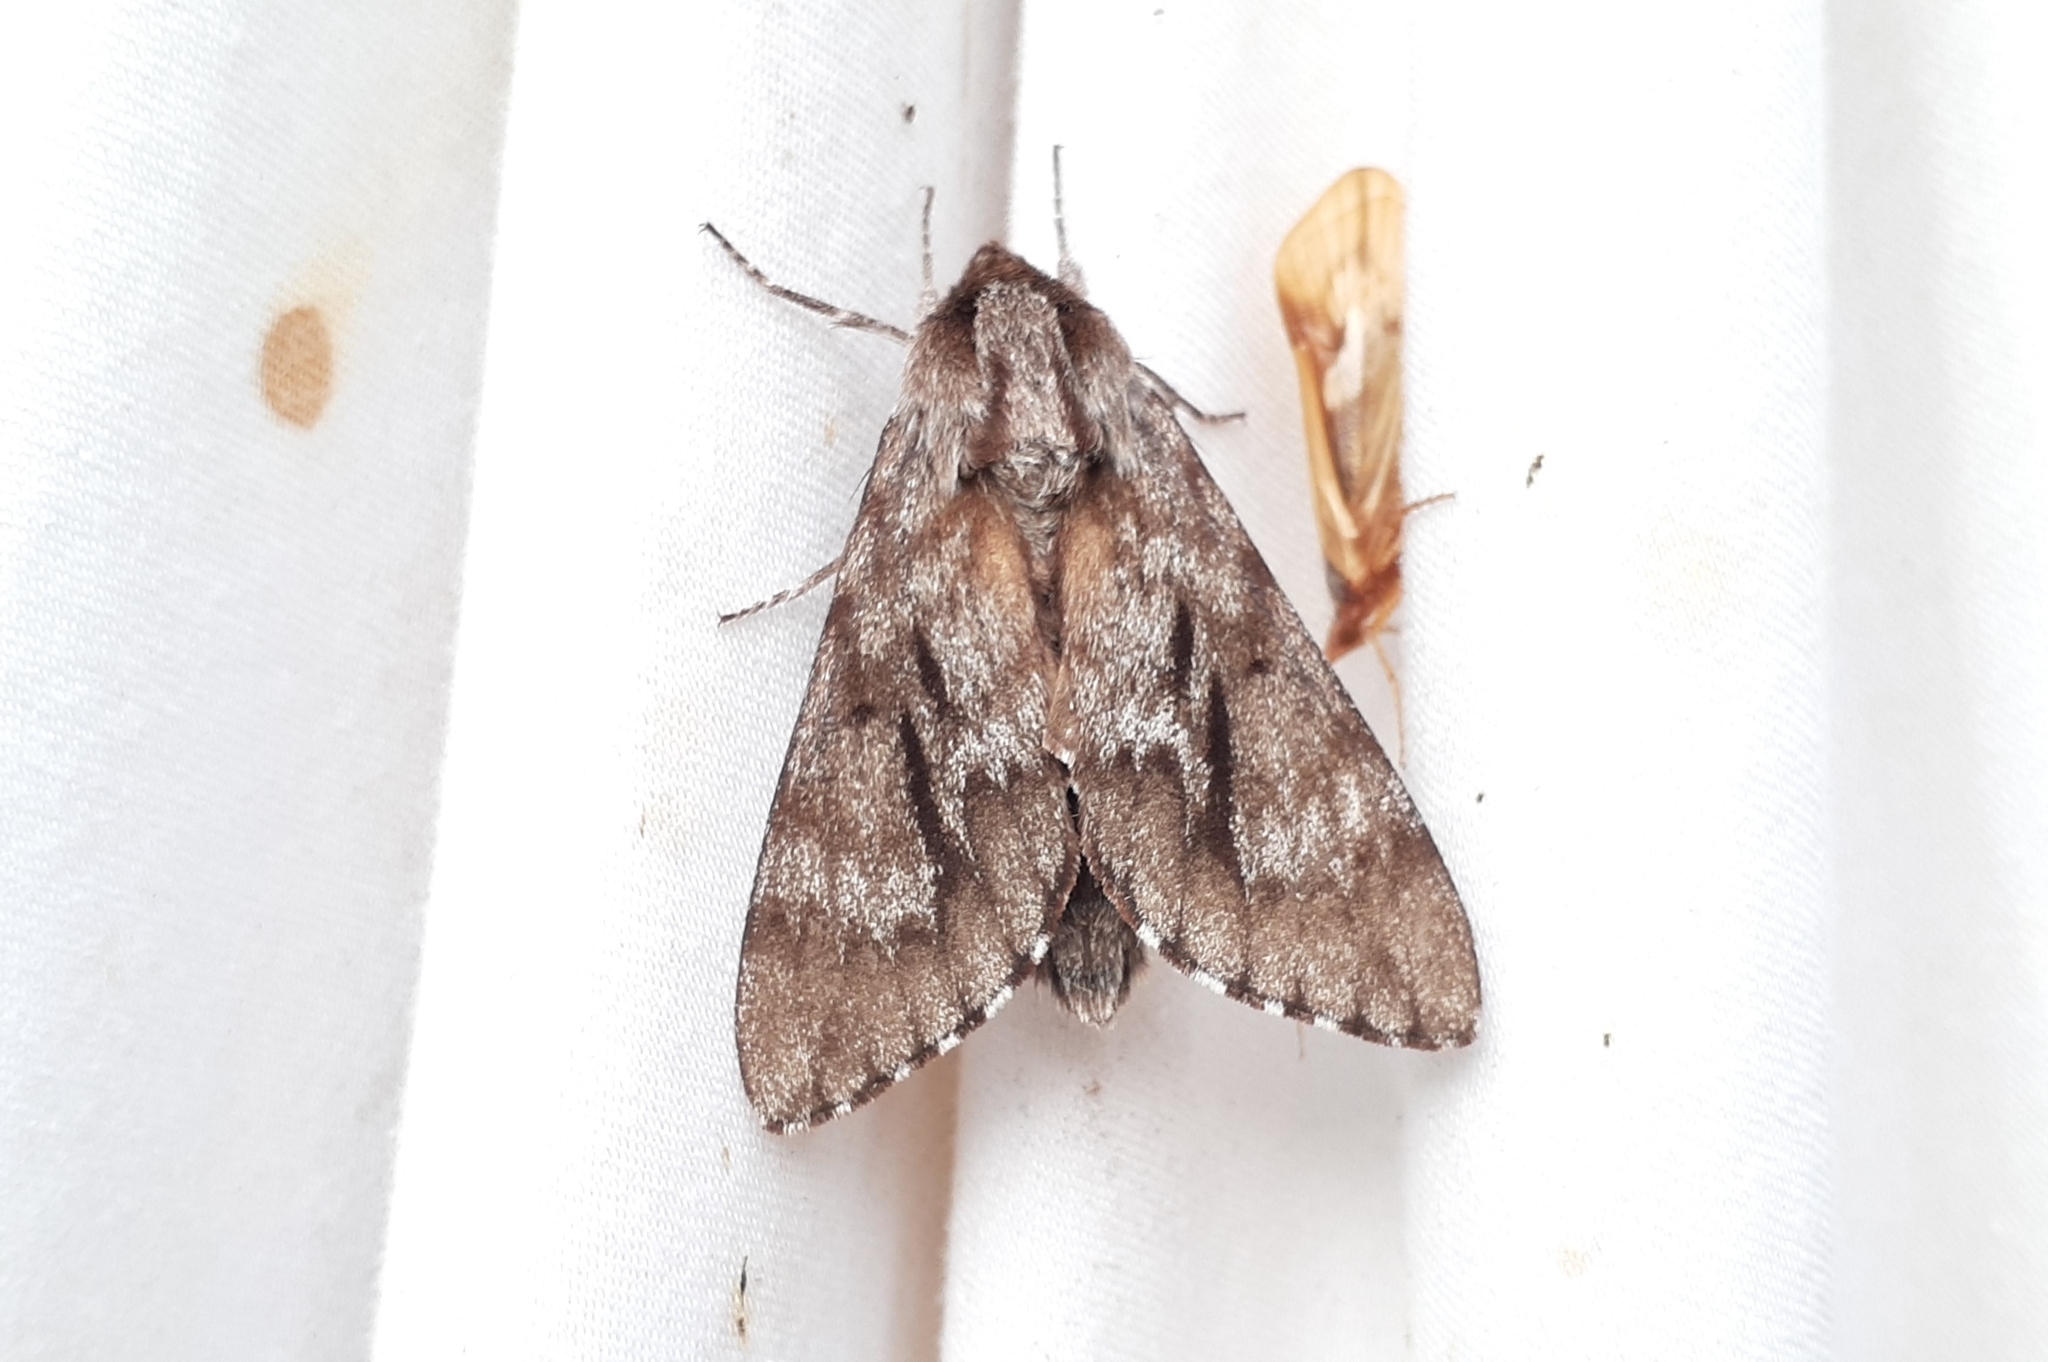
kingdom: Animalia
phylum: Arthropoda
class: Insecta
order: Lepidoptera
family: Sphingidae
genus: Lapara
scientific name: Lapara bombycoides
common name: Northern pine sphinx
